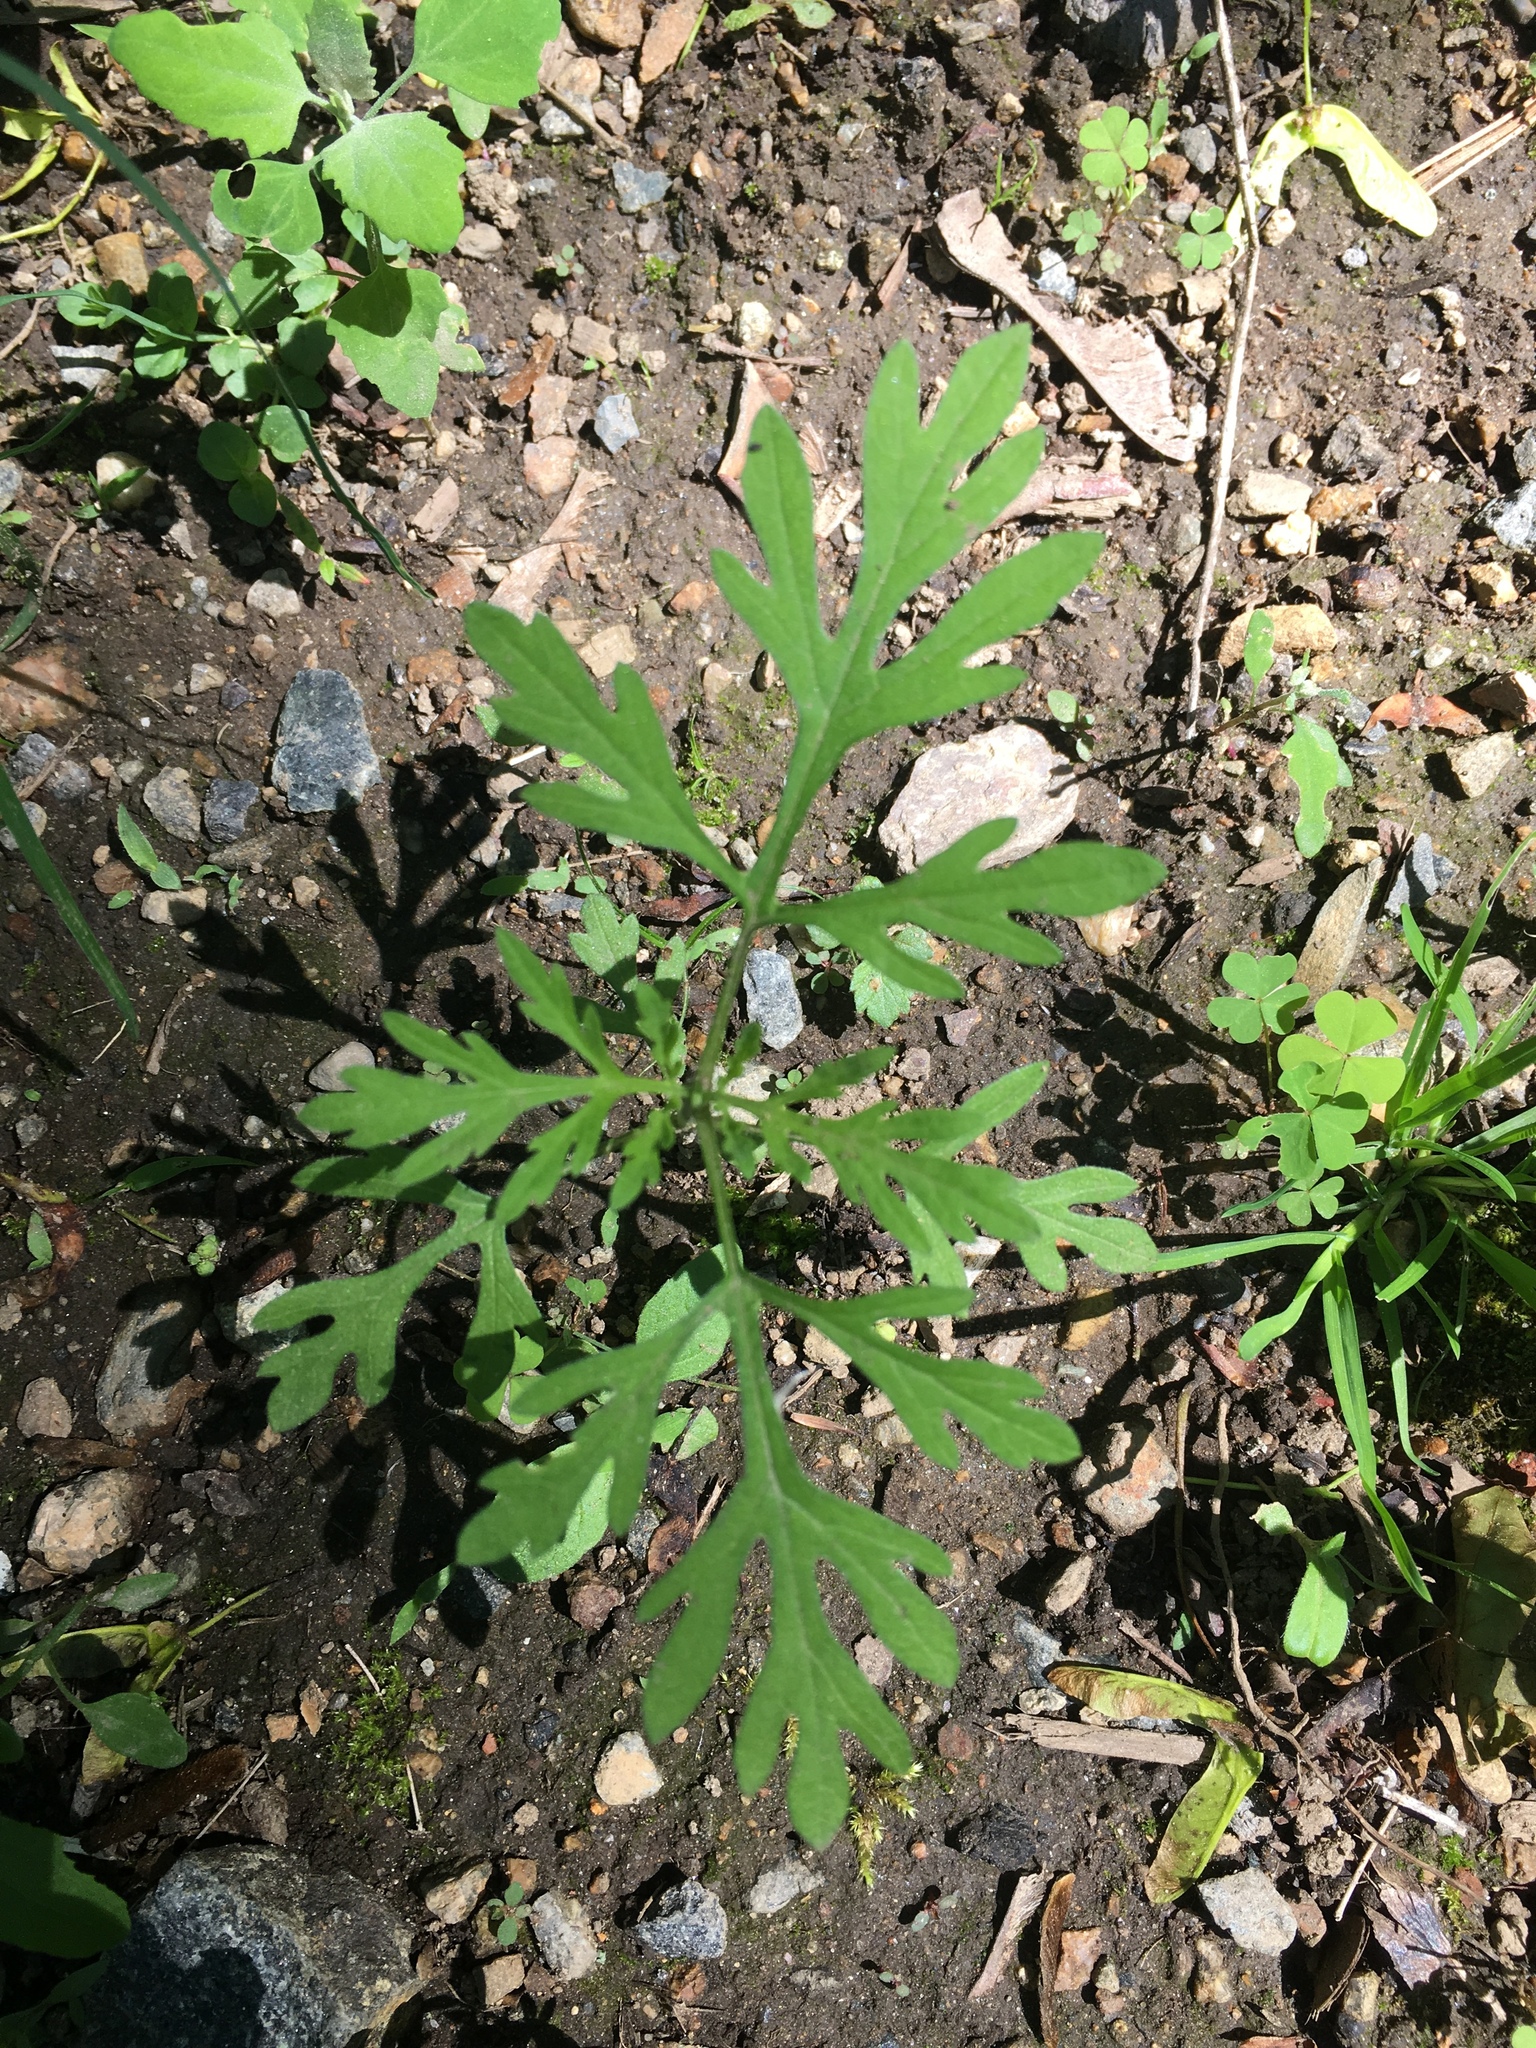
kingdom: Plantae
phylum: Tracheophyta
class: Magnoliopsida
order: Asterales
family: Asteraceae
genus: Ambrosia
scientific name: Ambrosia artemisiifolia
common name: Annual ragweed
